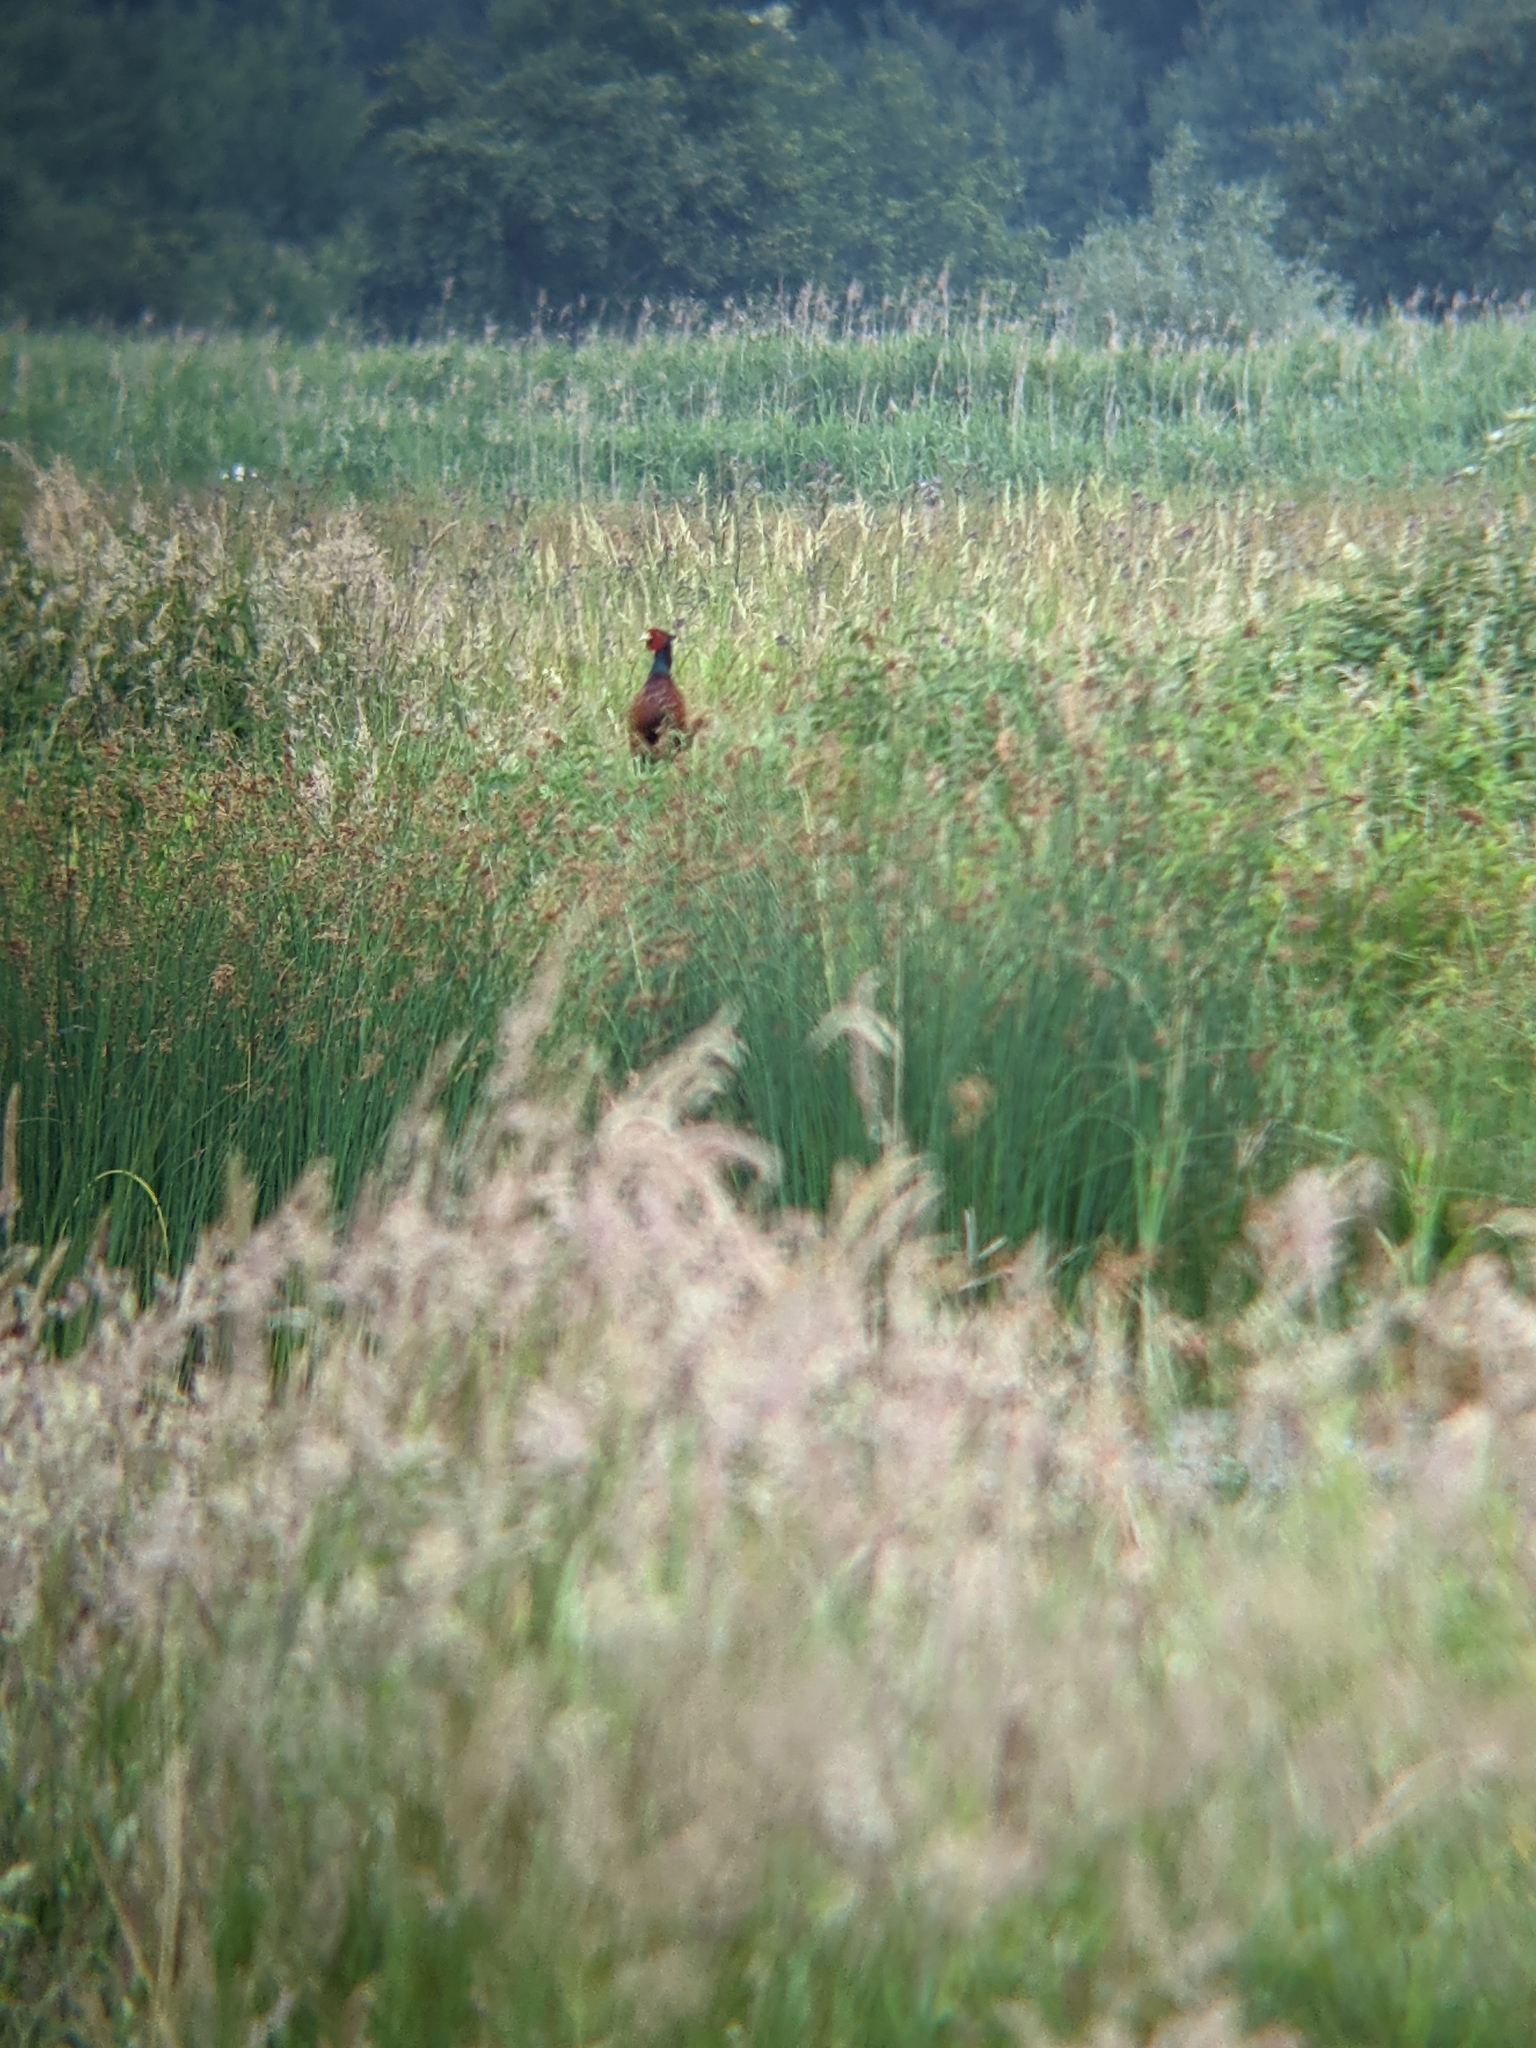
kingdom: Animalia
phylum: Chordata
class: Aves
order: Galliformes
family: Phasianidae
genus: Phasianus
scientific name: Phasianus colchicus
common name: Common pheasant
